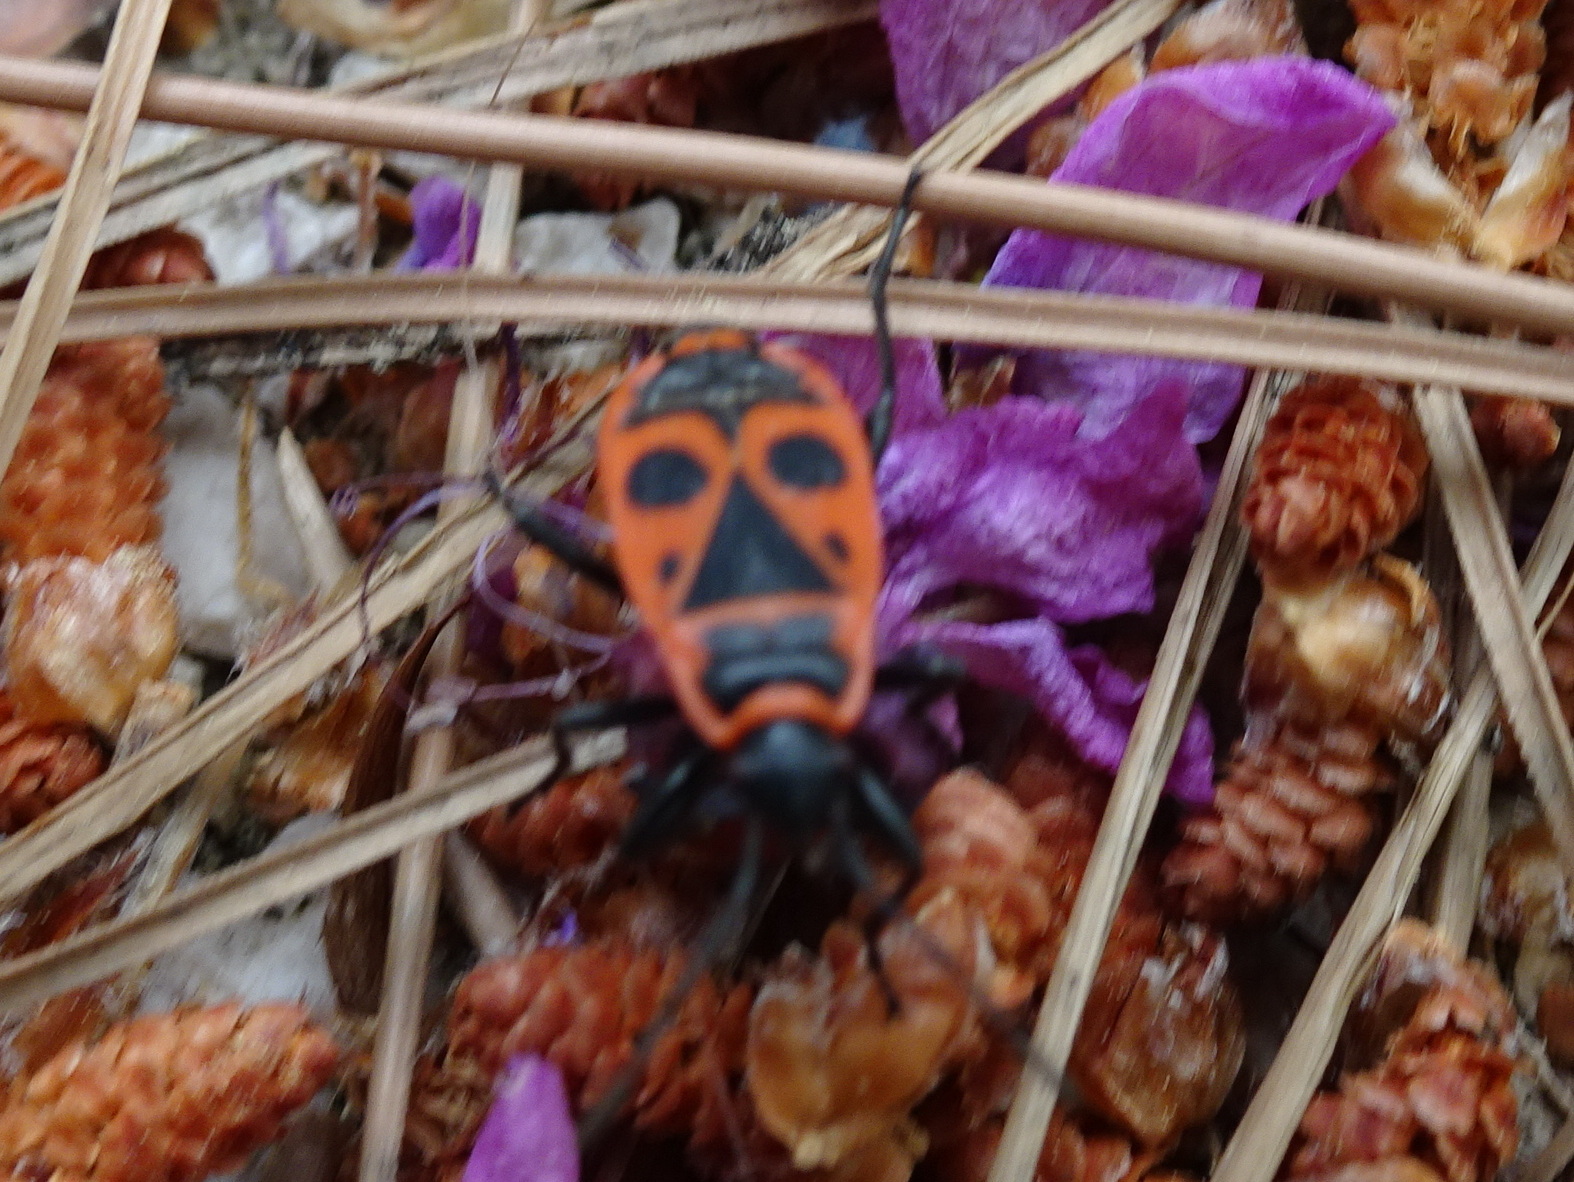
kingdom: Animalia
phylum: Arthropoda
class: Insecta
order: Hemiptera
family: Pyrrhocoridae
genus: Pyrrhocoris
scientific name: Pyrrhocoris apterus
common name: Firebug
